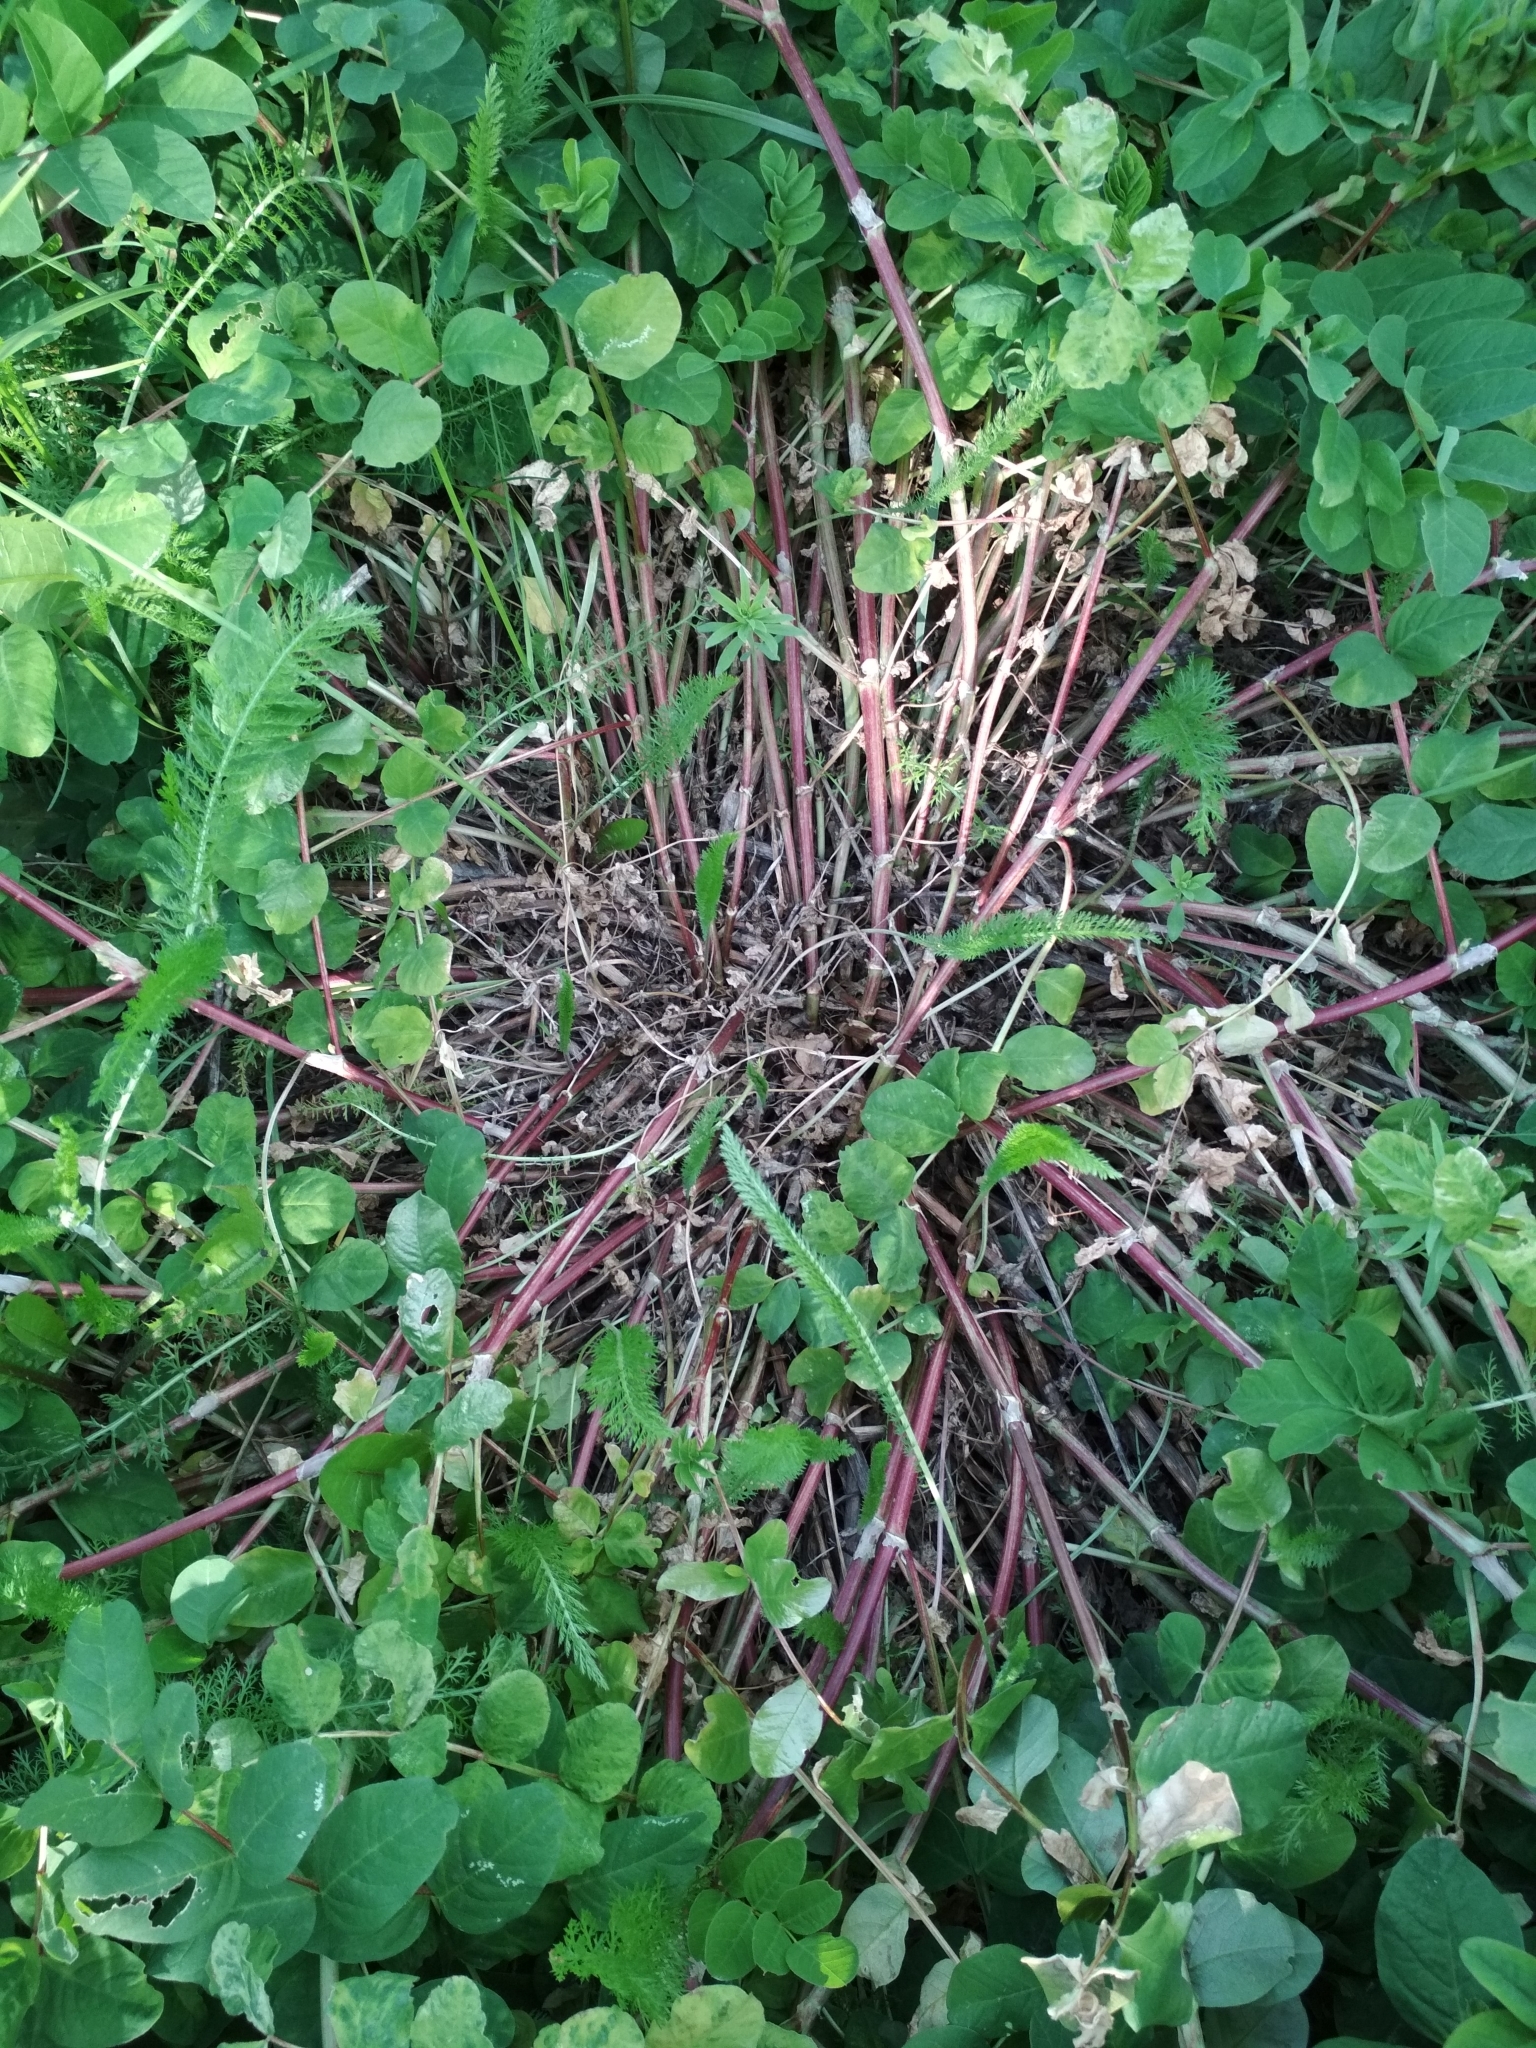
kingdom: Plantae
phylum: Tracheophyta
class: Magnoliopsida
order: Fabales
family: Fabaceae
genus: Astragalus
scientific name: Astragalus glycyphyllos
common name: Wild liquorice
